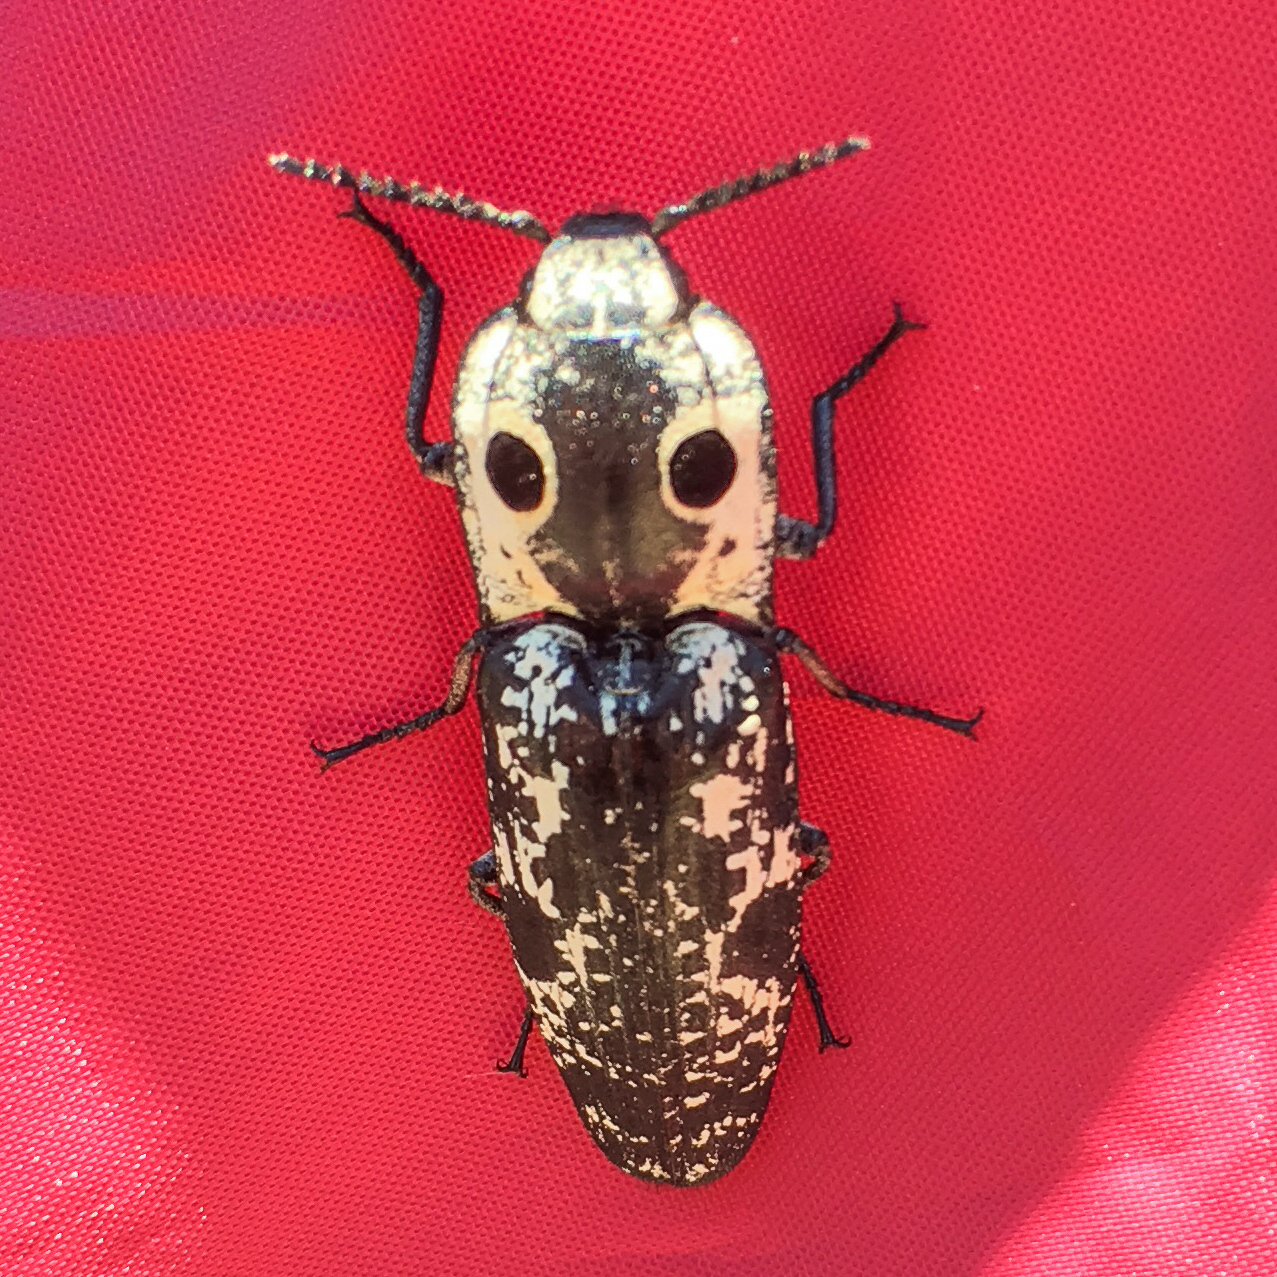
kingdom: Animalia
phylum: Arthropoda
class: Insecta
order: Coleoptera
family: Elateridae
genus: Alaus
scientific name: Alaus
